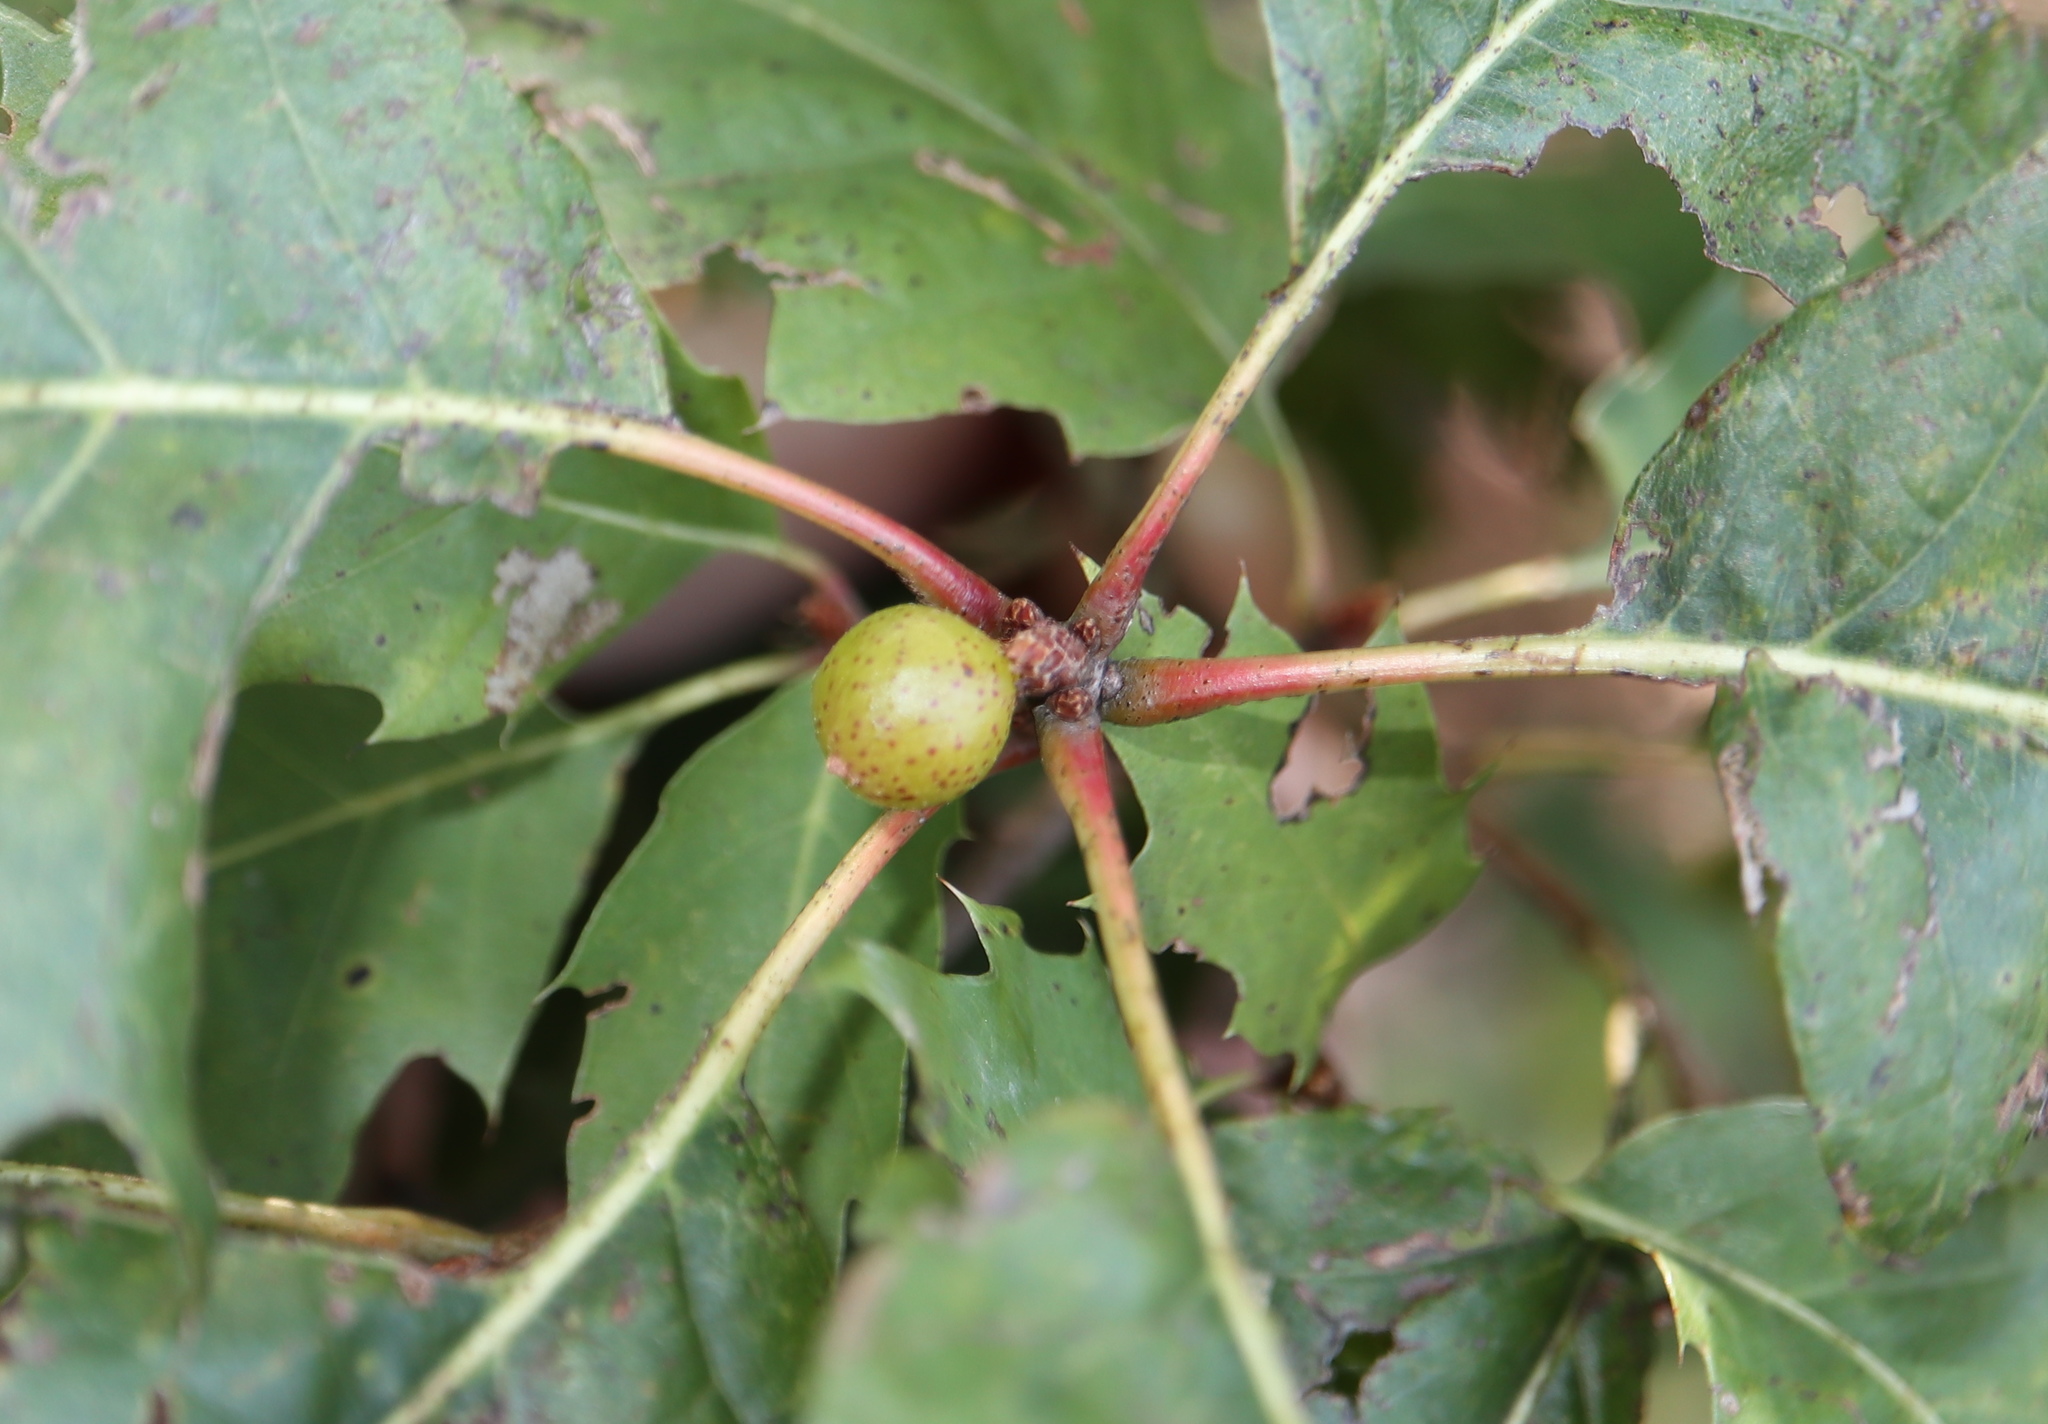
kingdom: Animalia
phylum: Arthropoda
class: Insecta
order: Hymenoptera
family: Cynipidae
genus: Amphibolips
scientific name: Amphibolips
